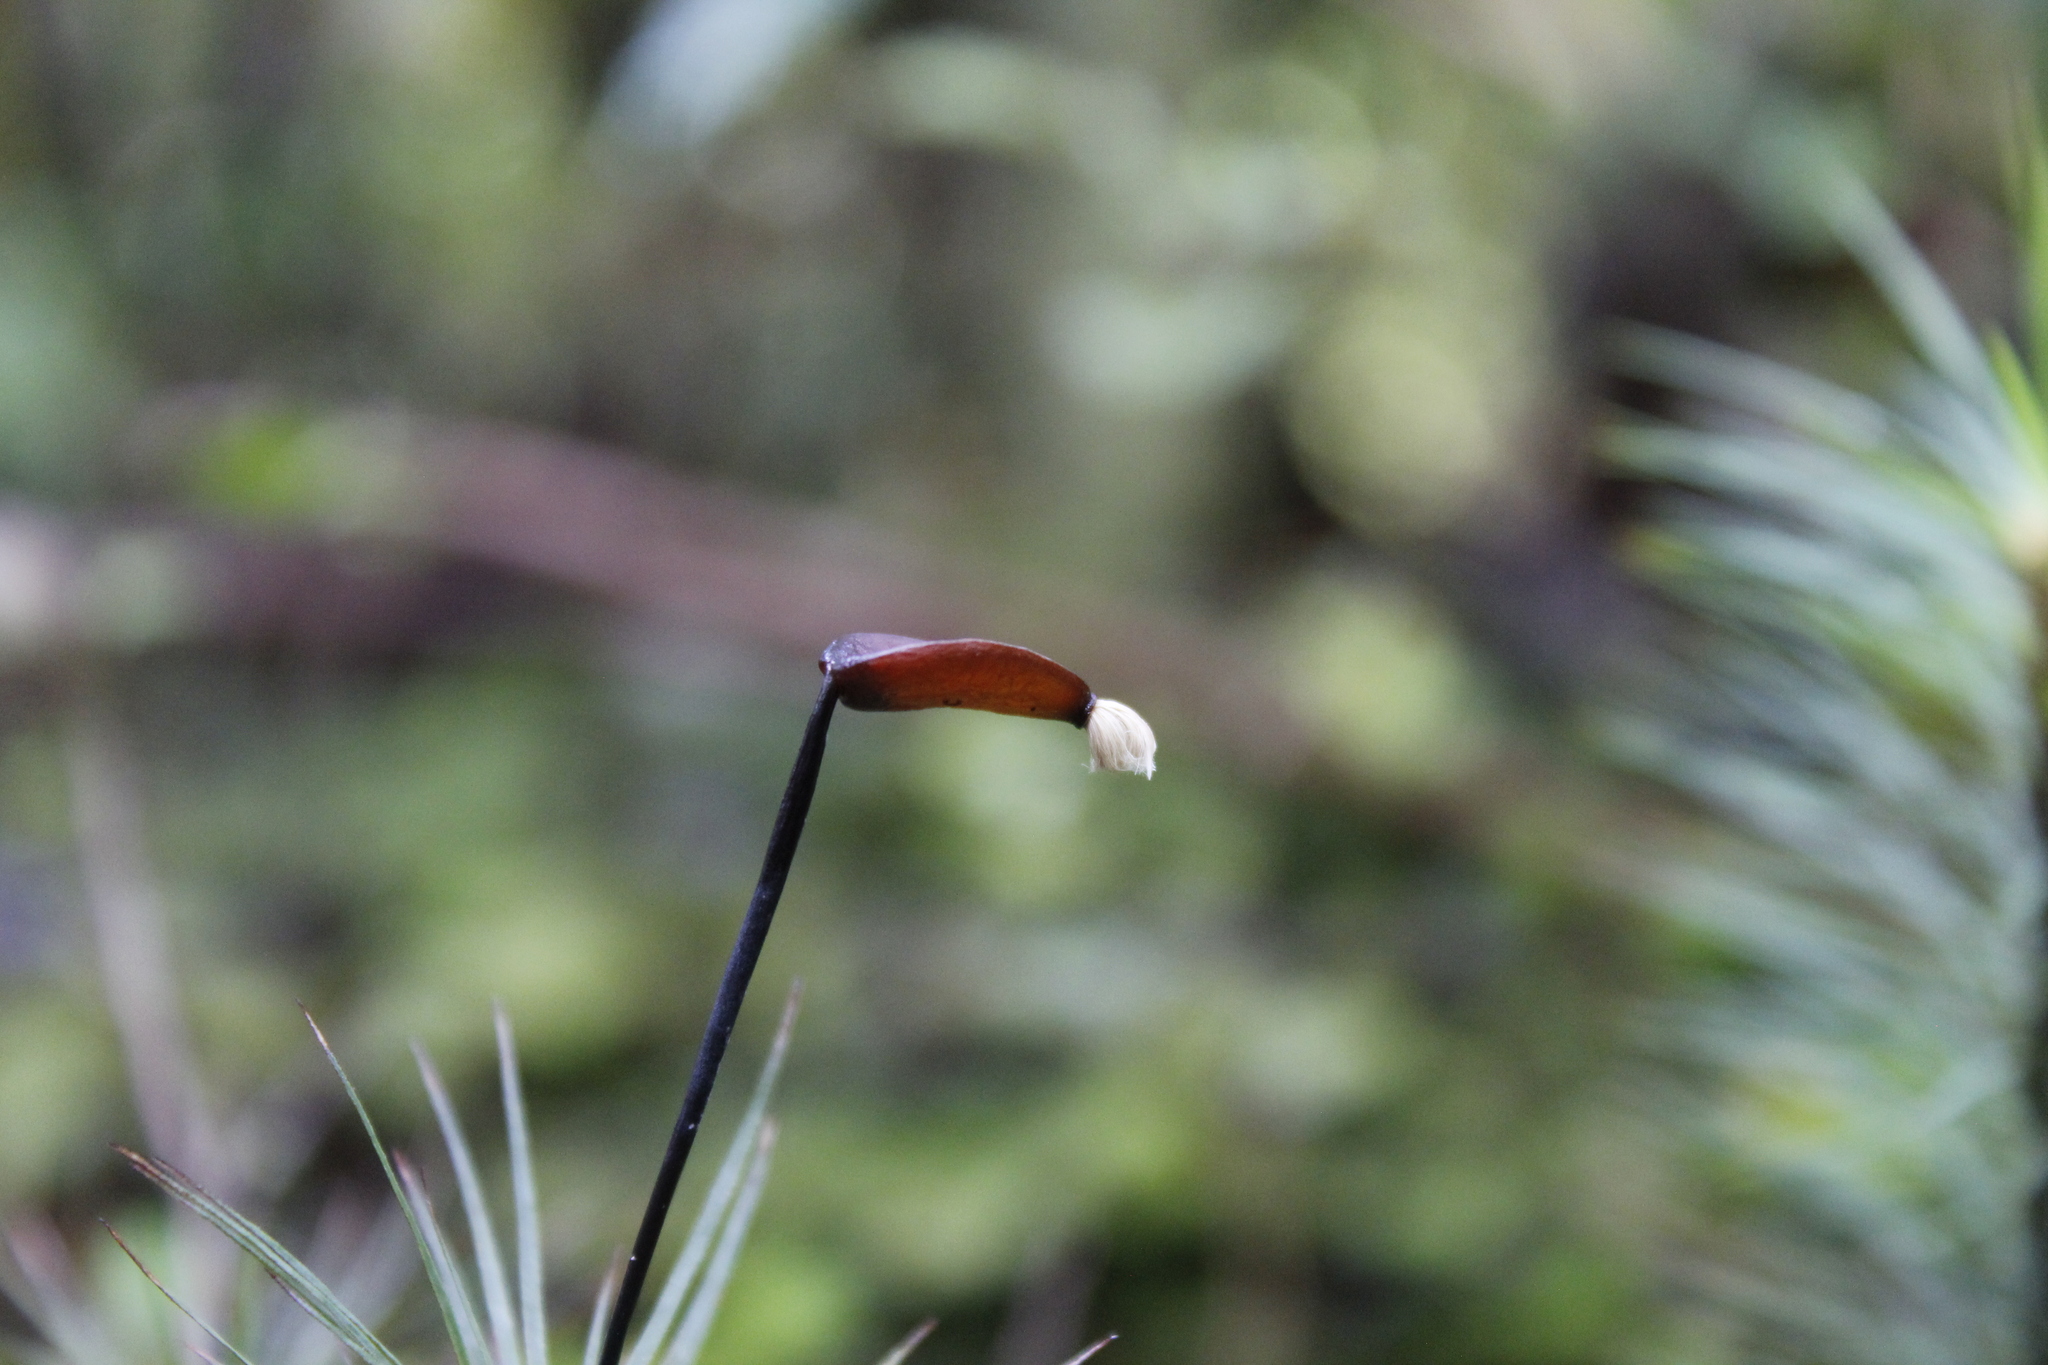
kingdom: Plantae
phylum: Bryophyta
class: Polytrichopsida
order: Polytrichales
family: Polytrichaceae
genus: Dawsonia
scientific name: Dawsonia superba
